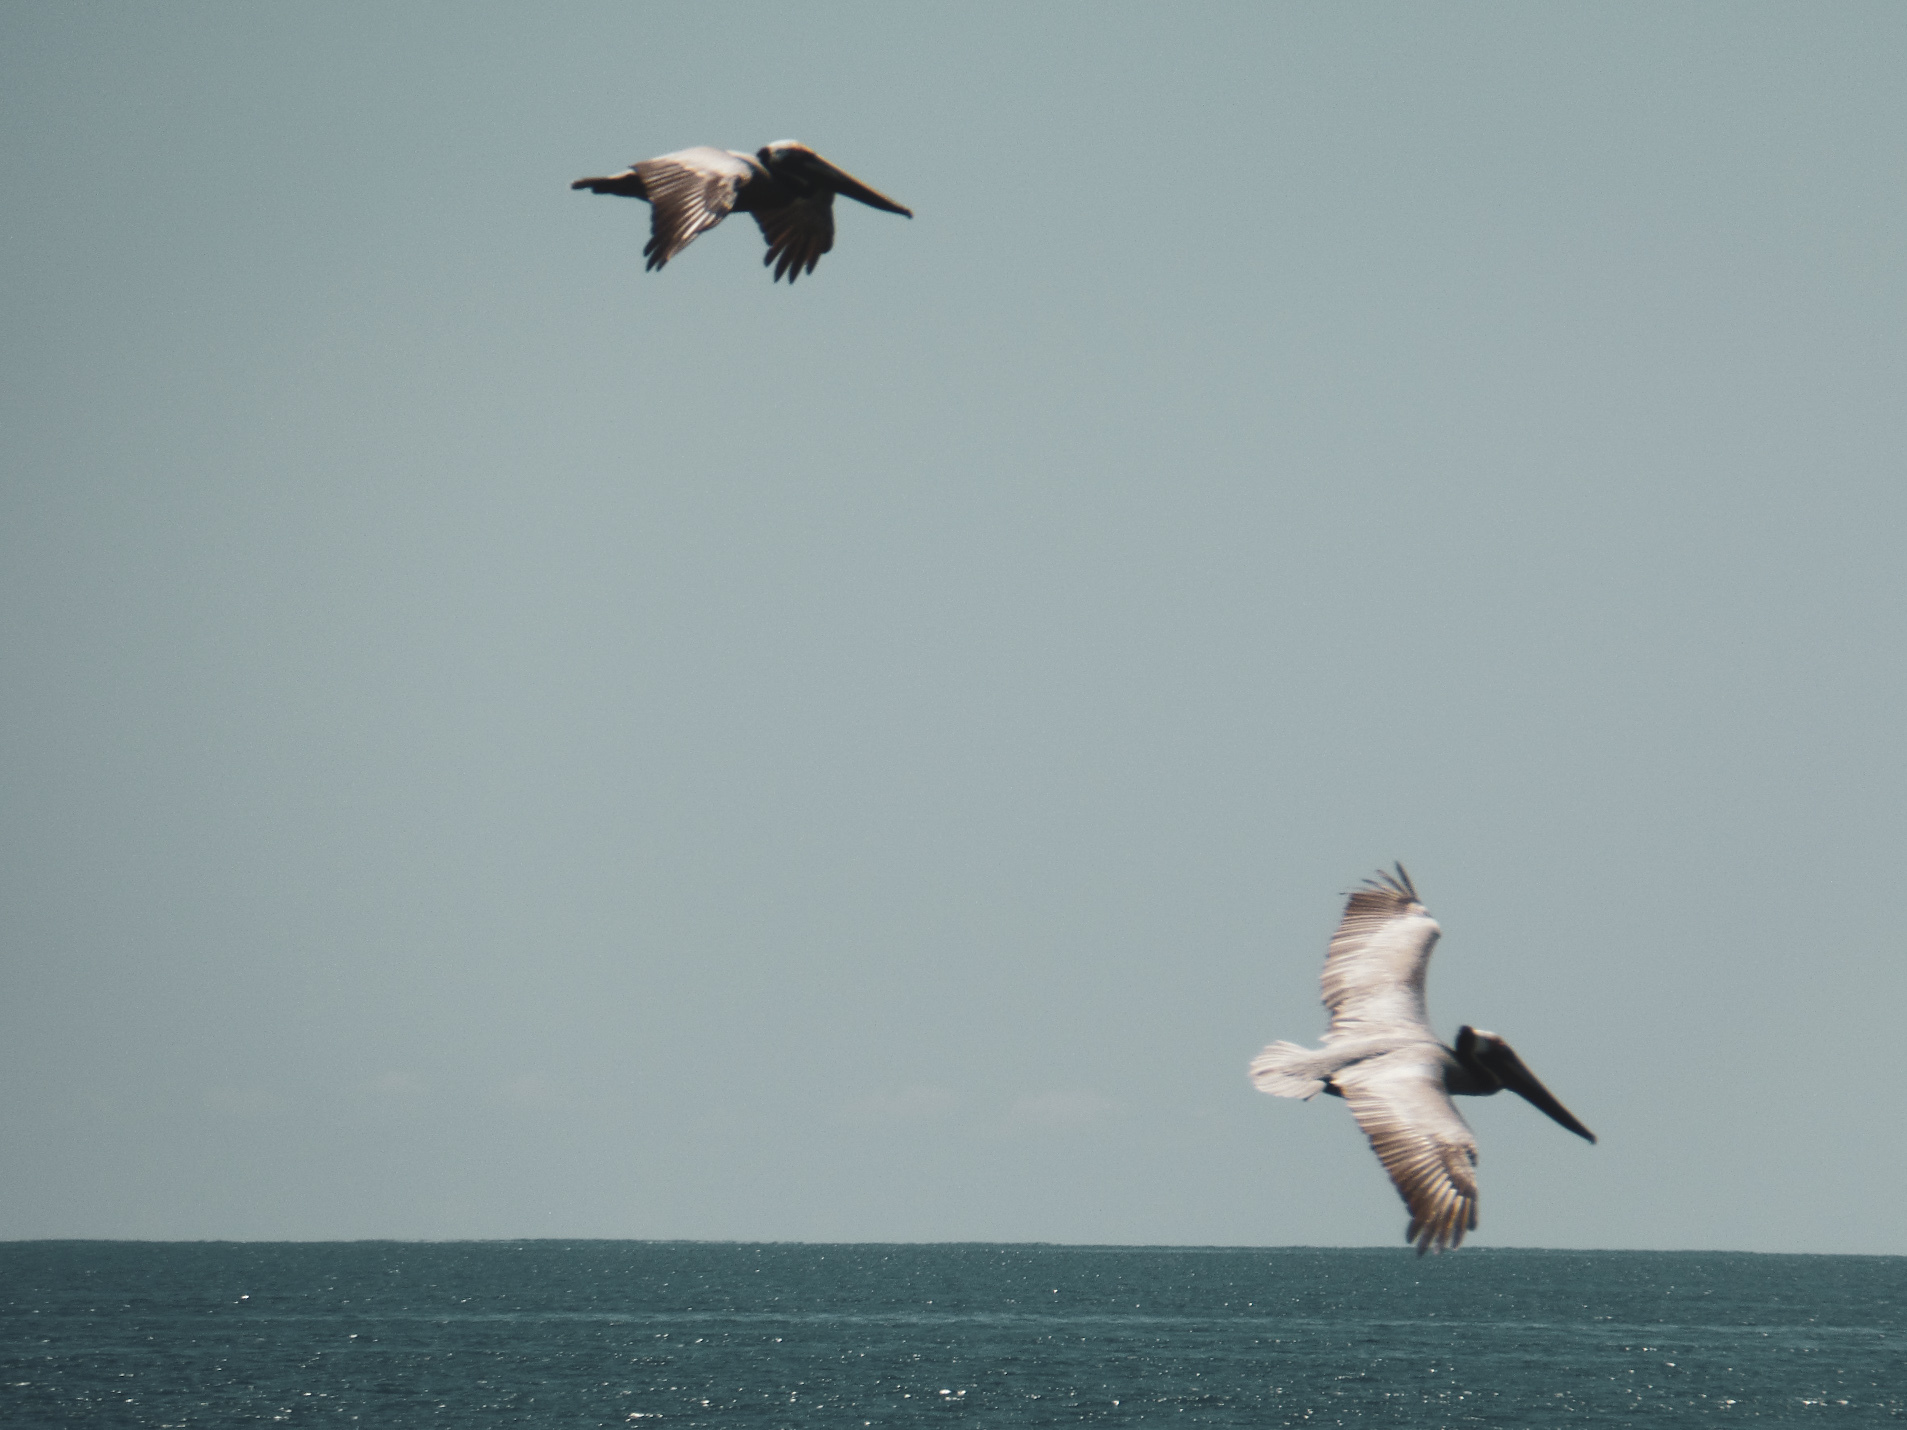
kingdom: Animalia
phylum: Chordata
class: Aves
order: Pelecaniformes
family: Pelecanidae
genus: Pelecanus
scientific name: Pelecanus occidentalis
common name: Brown pelican
